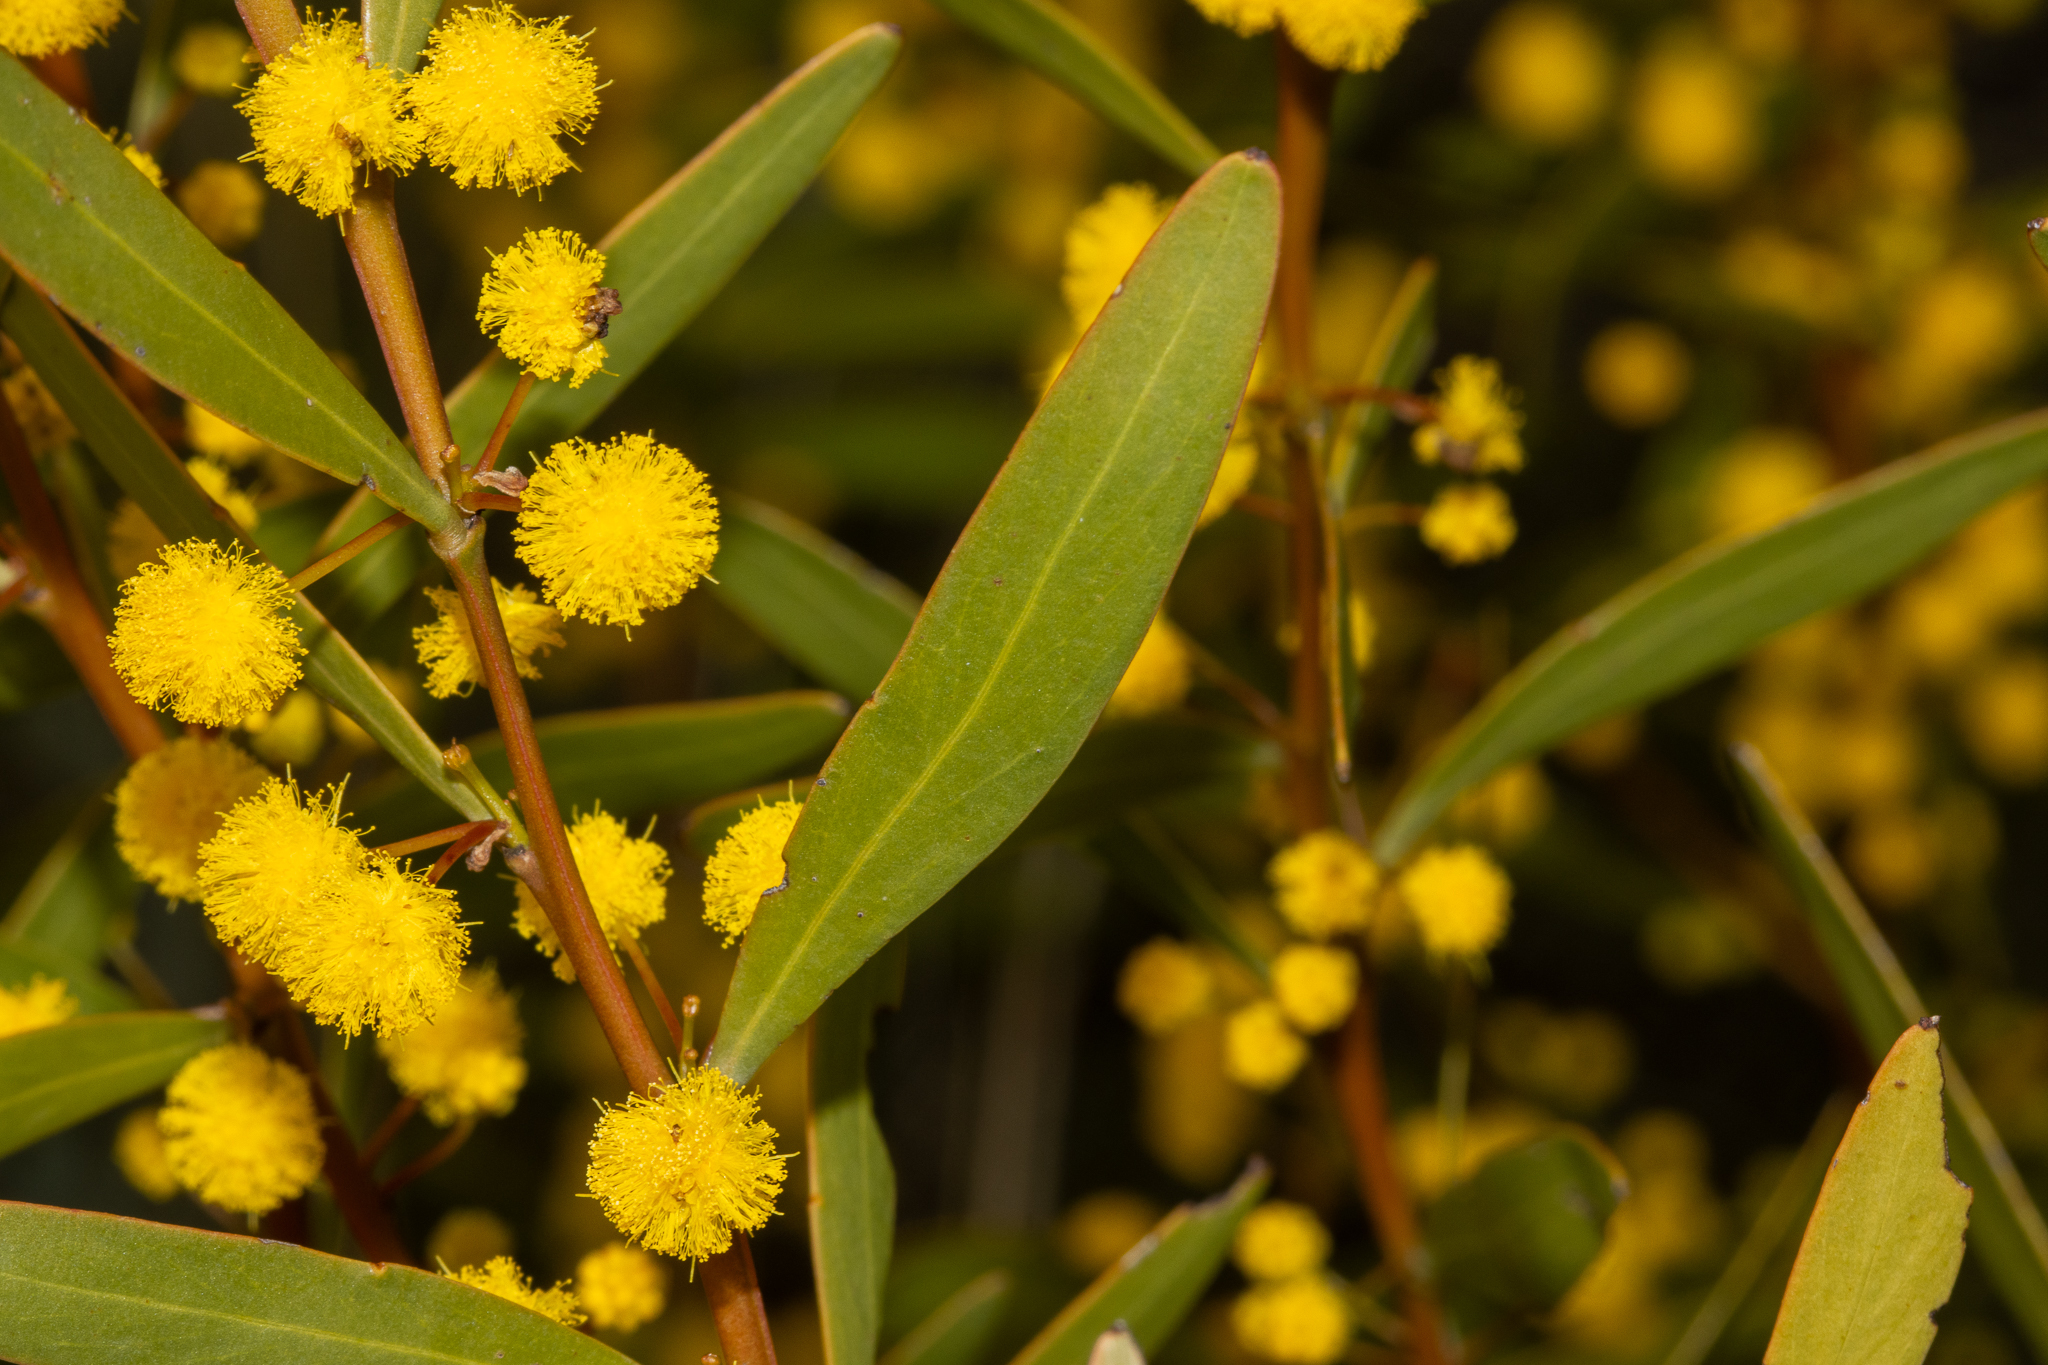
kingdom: Plantae
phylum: Tracheophyta
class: Magnoliopsida
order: Fabales
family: Fabaceae
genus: Acacia
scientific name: Acacia microcarpa
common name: Manna wattle
